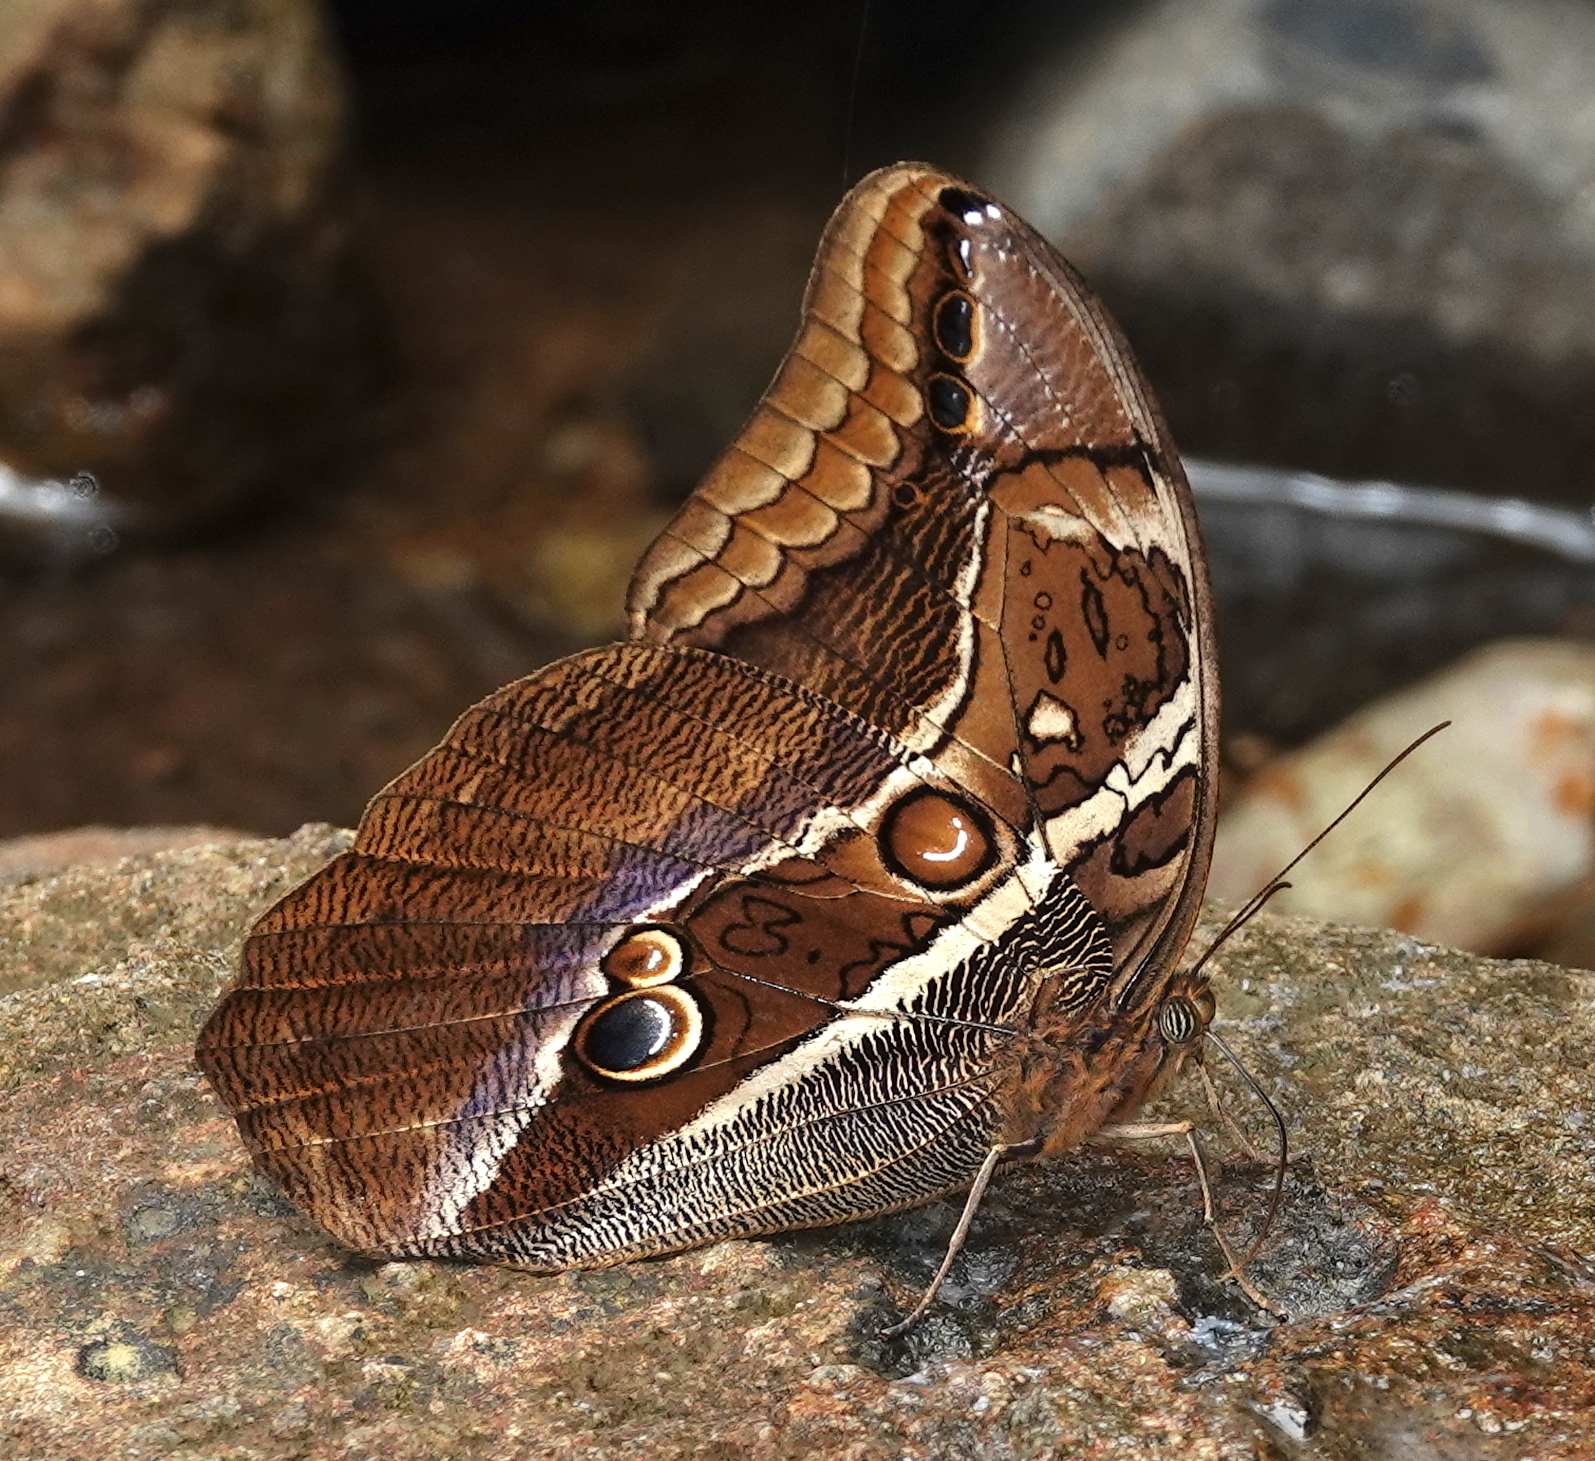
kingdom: Animalia
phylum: Arthropoda
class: Insecta
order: Lepidoptera
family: Nymphalidae
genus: Eryphanis
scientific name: Eryphanis zolvizora
